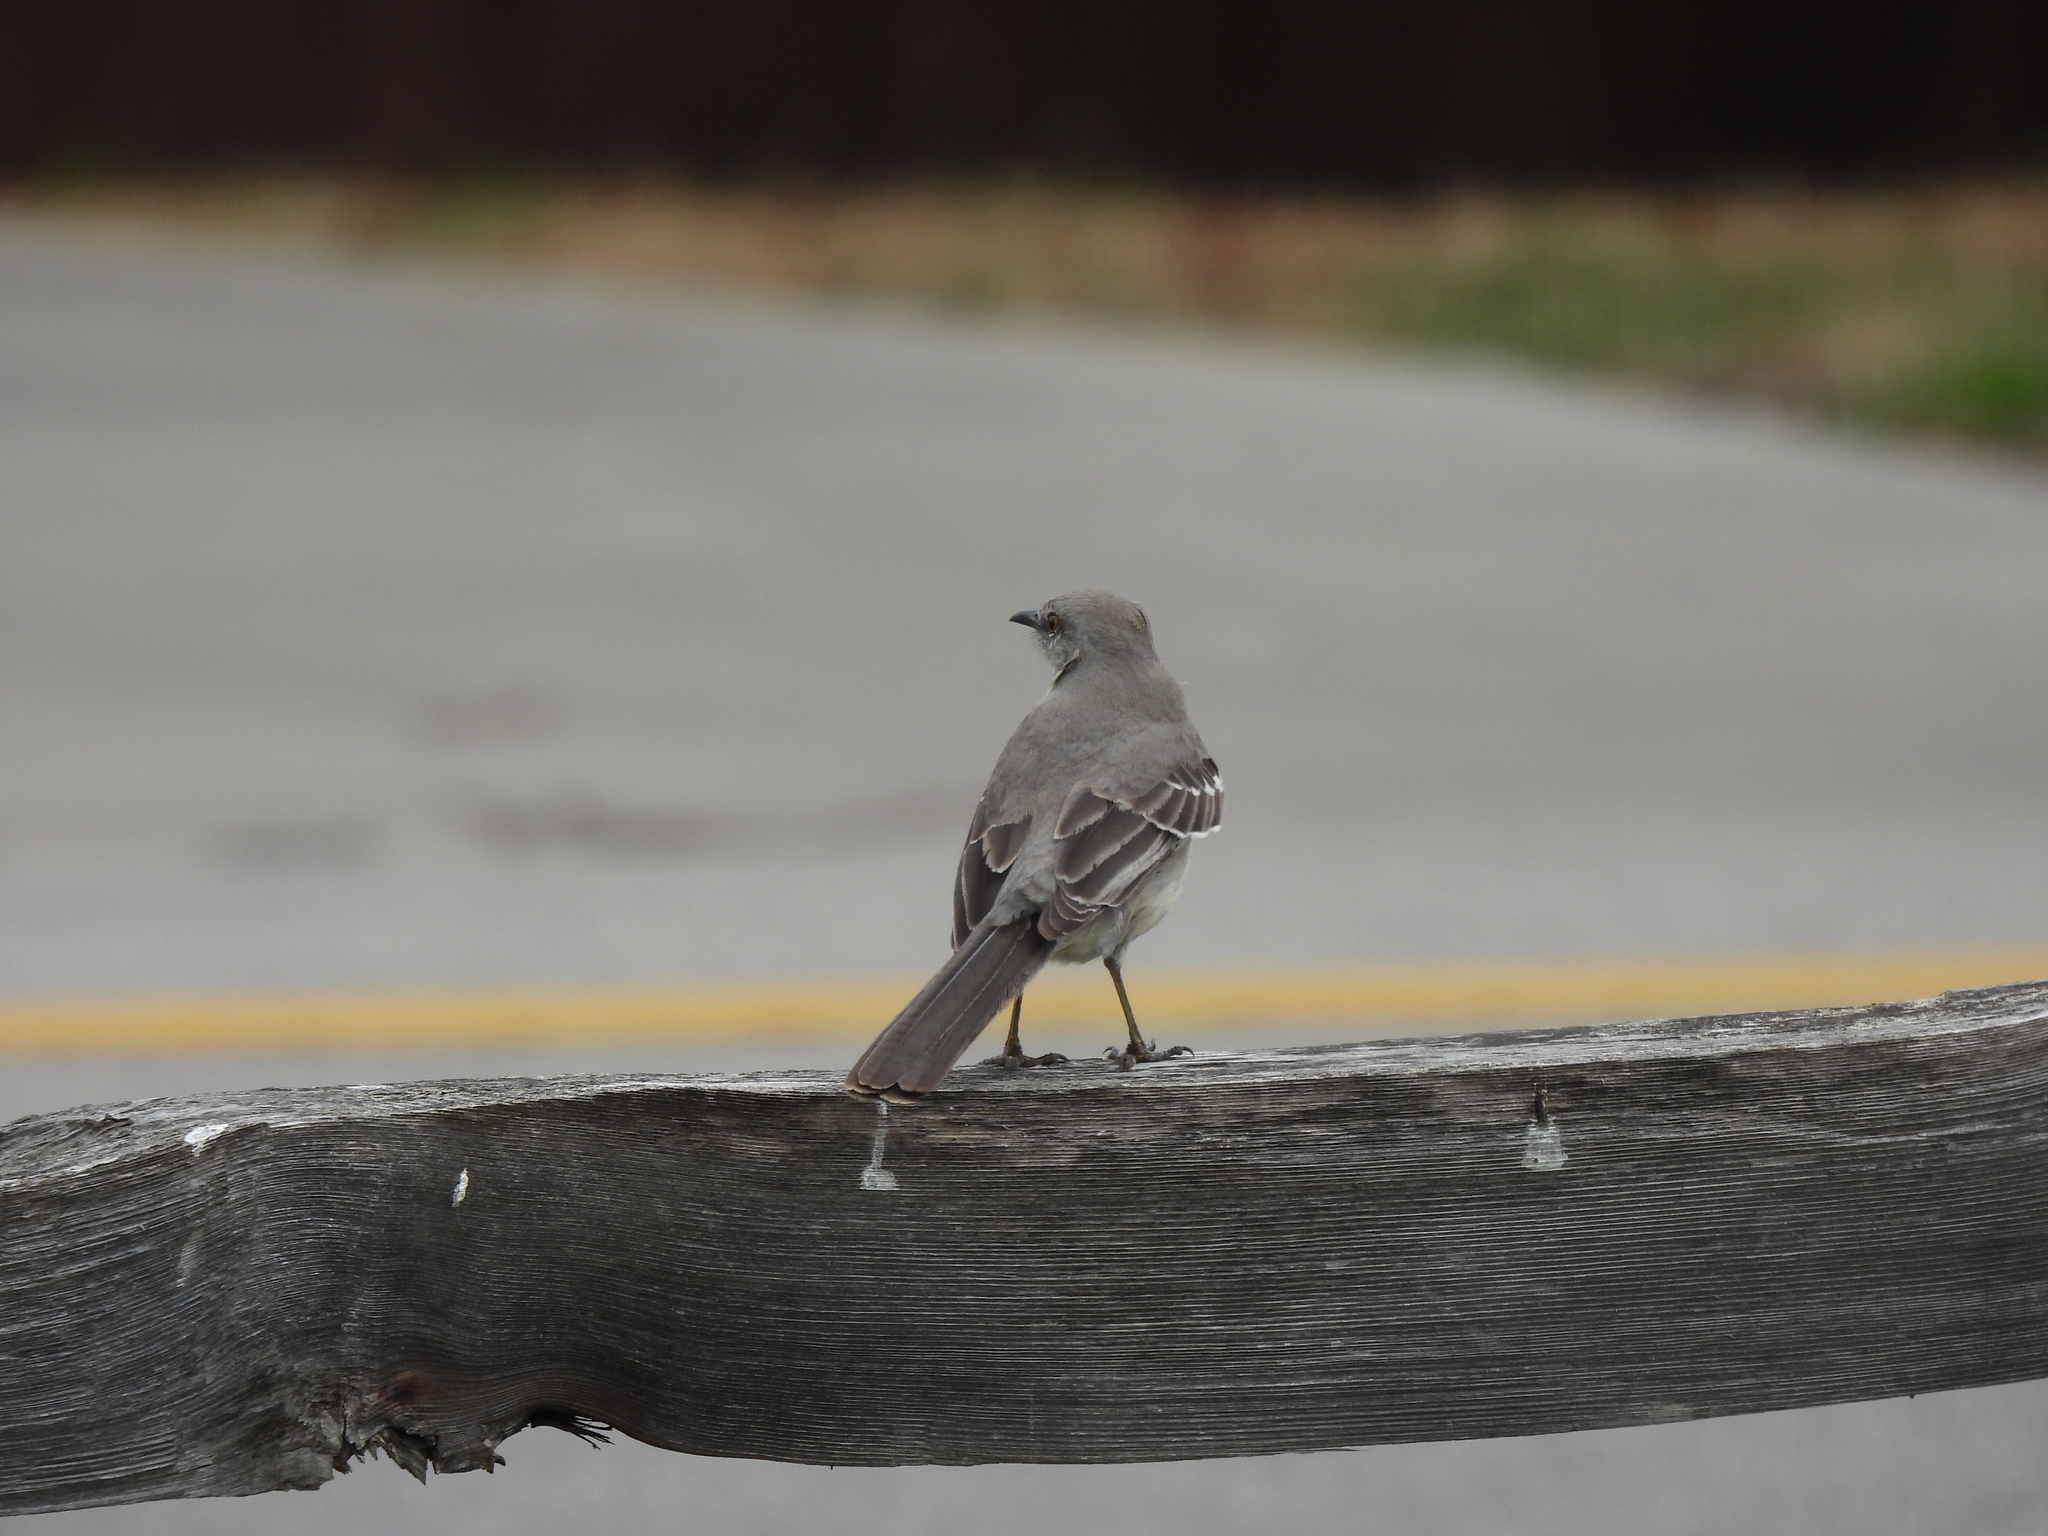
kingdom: Animalia
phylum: Chordata
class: Aves
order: Passeriformes
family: Mimidae
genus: Mimus
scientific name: Mimus polyglottos
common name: Northern mockingbird
